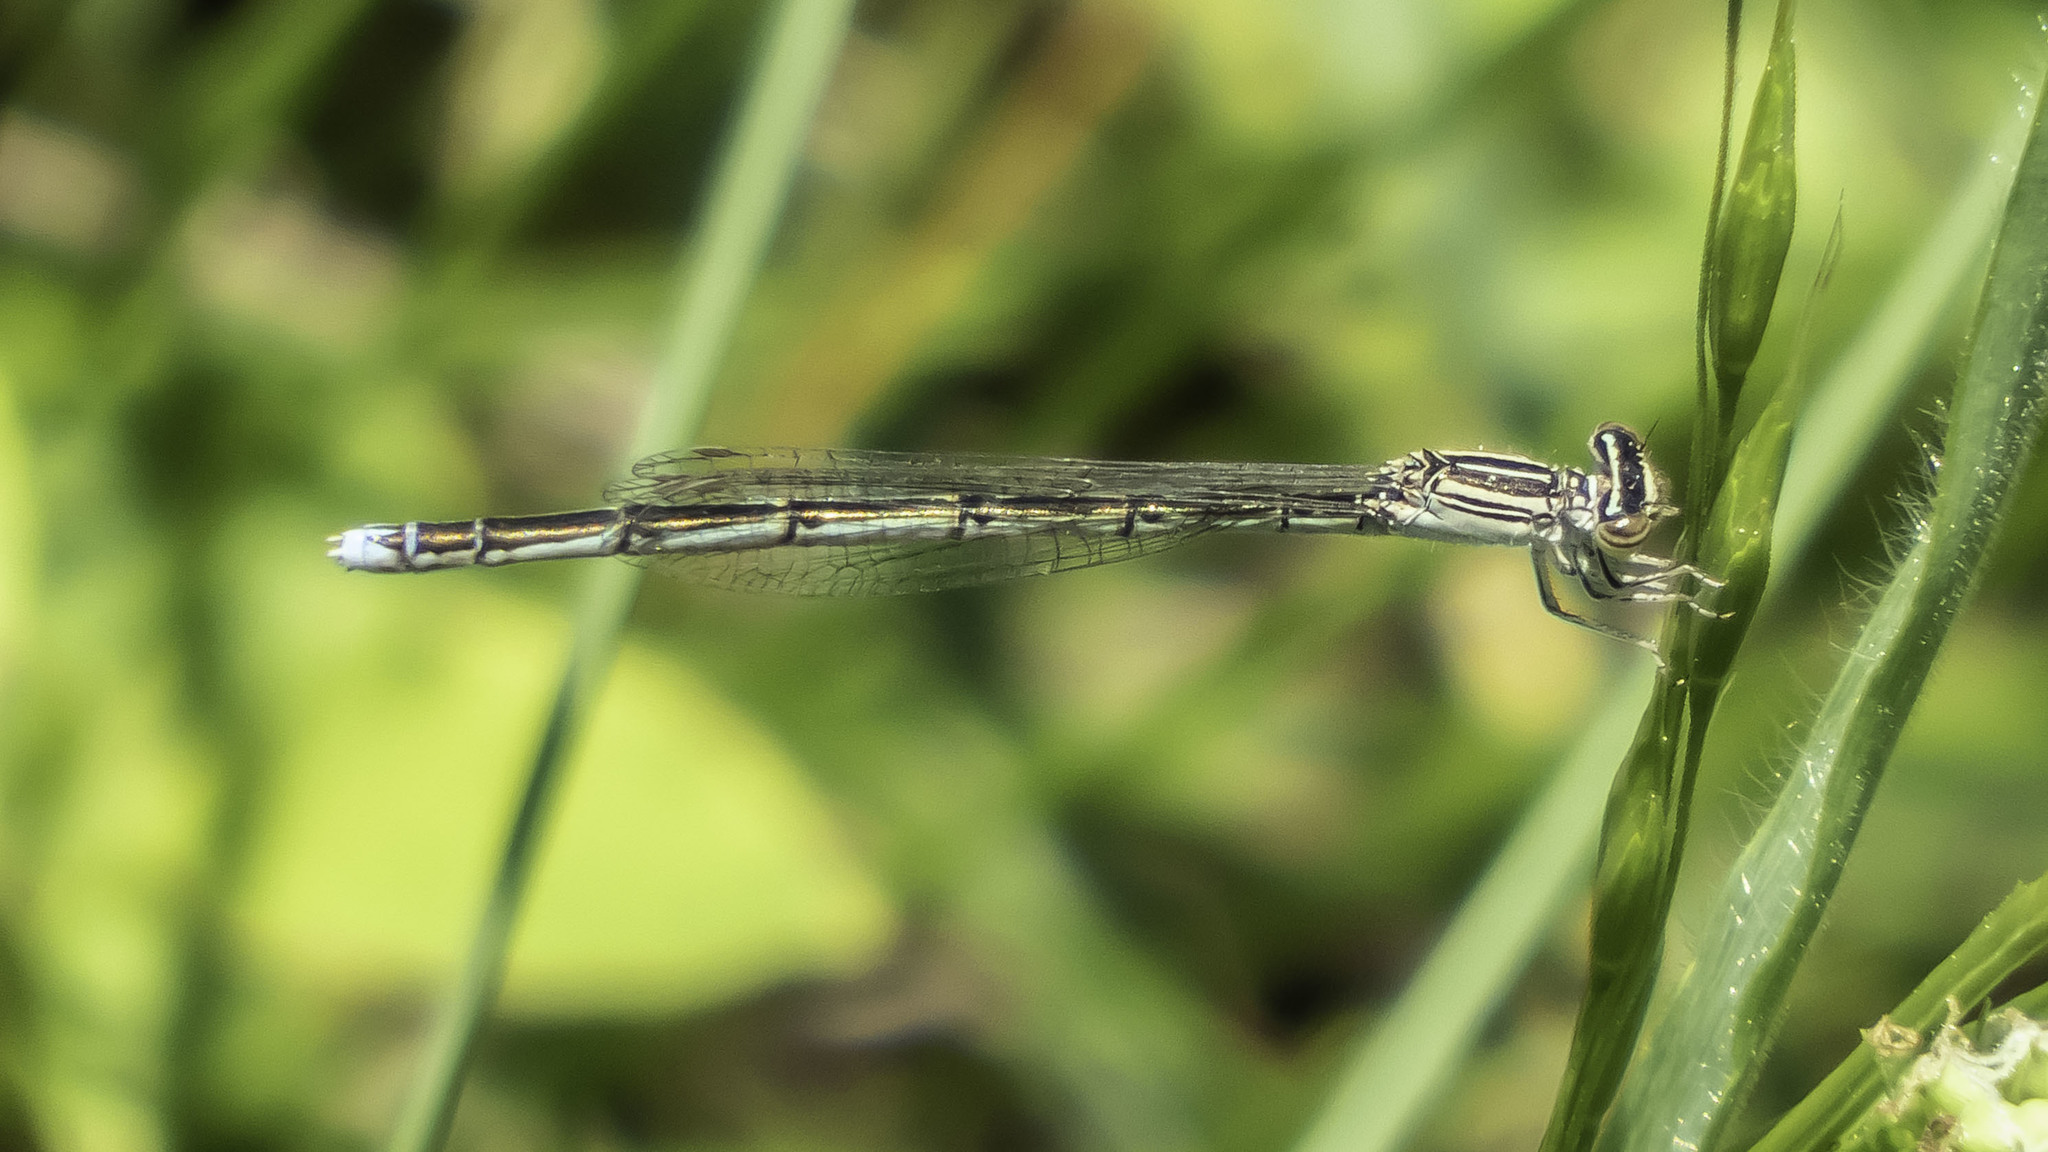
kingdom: Animalia
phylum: Arthropoda
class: Insecta
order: Odonata
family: Coenagrionidae
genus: Enallagma
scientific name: Enallagma basidens
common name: Double-striped bluet
